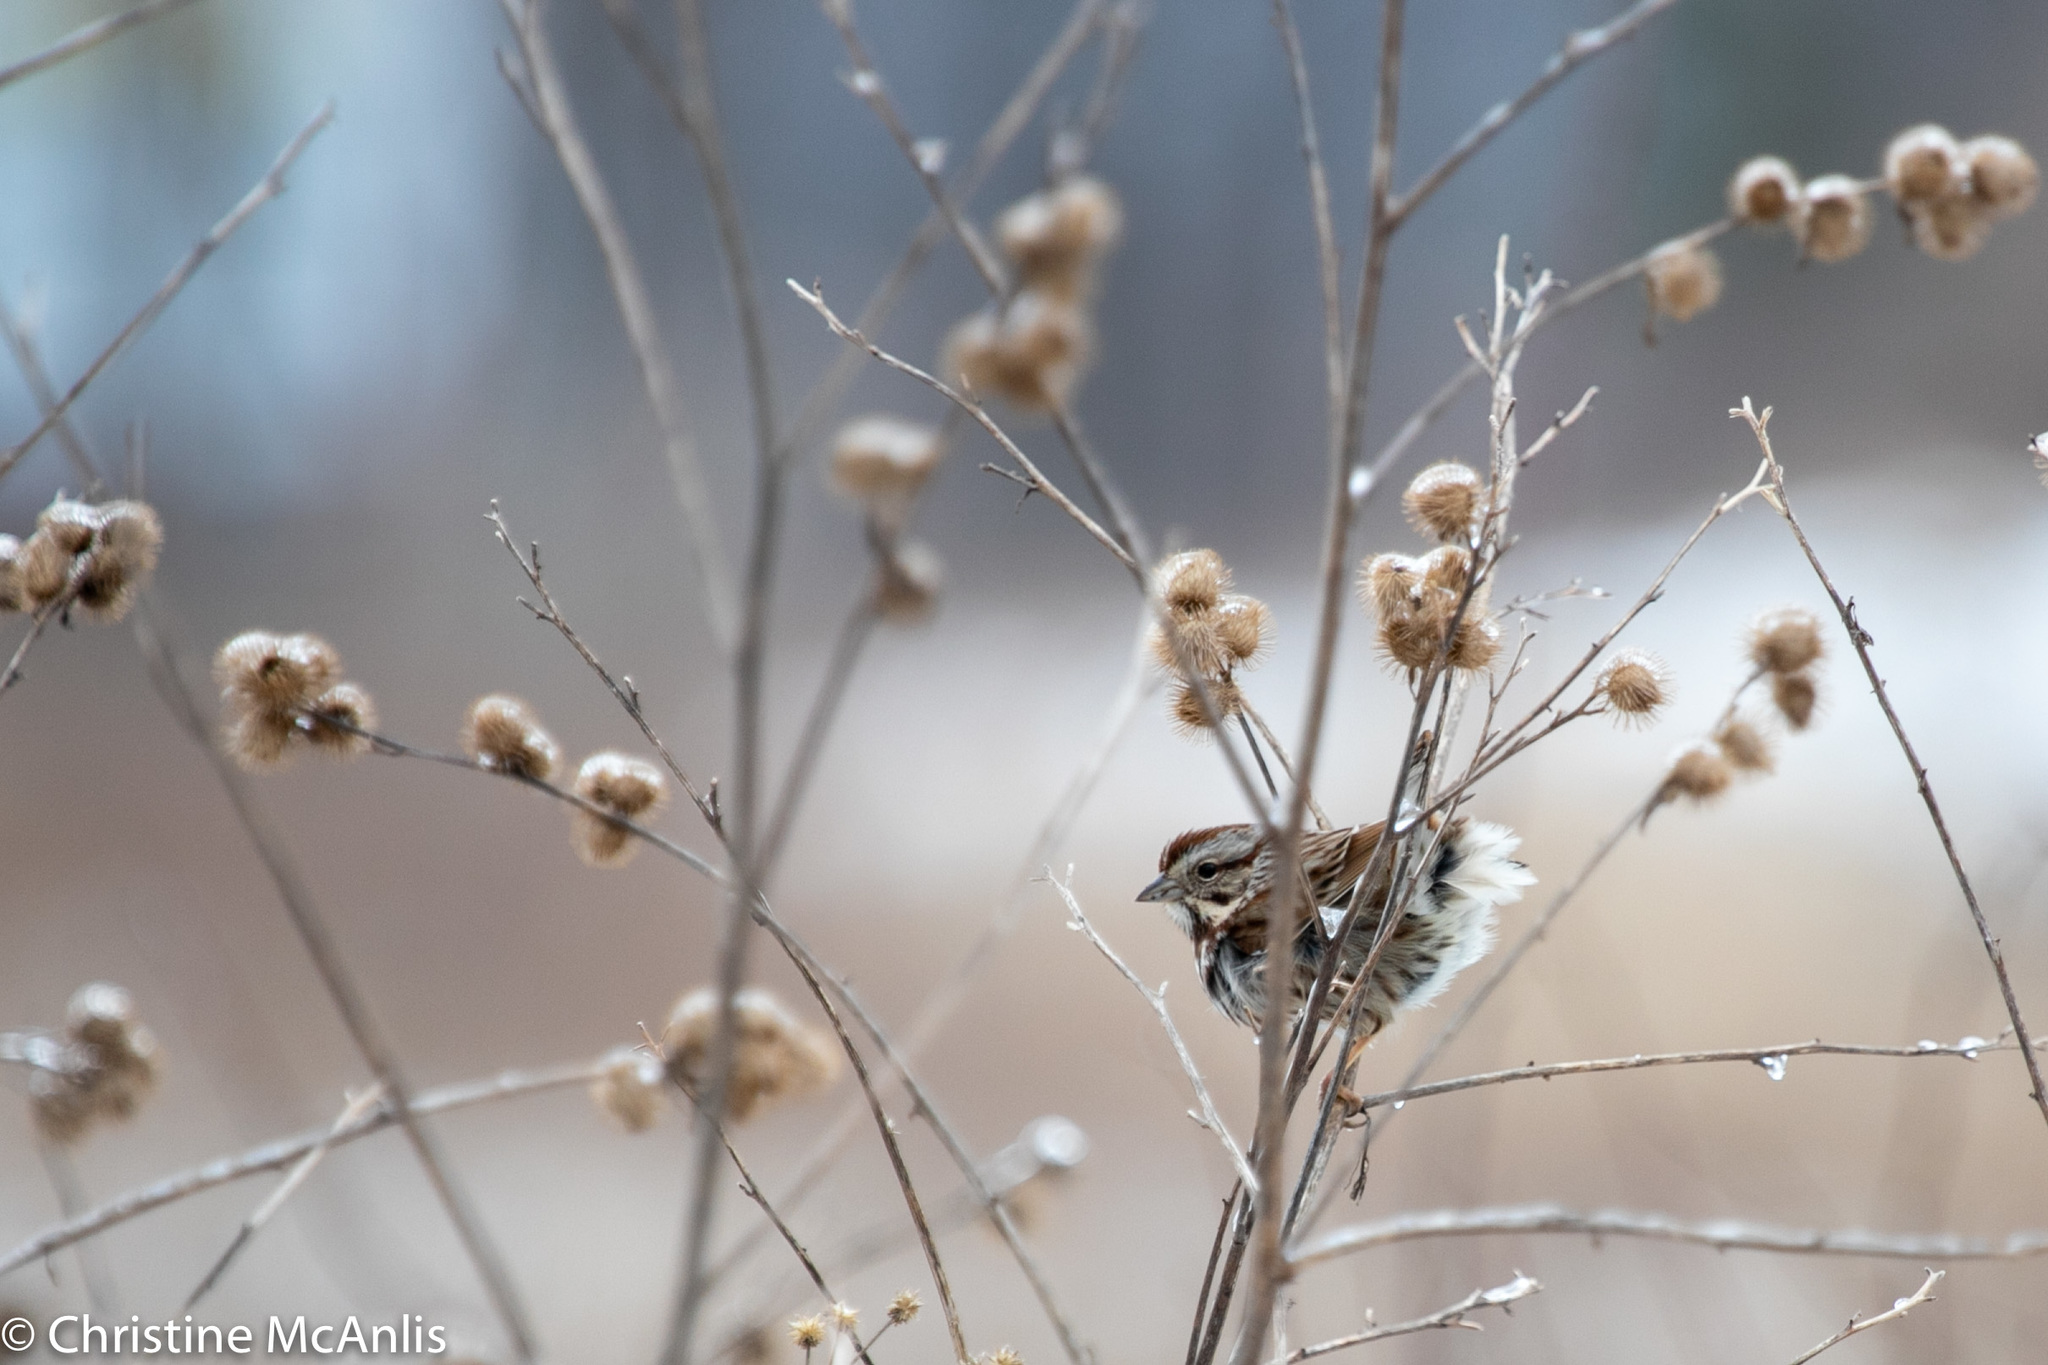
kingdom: Animalia
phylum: Chordata
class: Aves
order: Passeriformes
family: Passerellidae
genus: Melospiza
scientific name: Melospiza melodia
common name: Song sparrow
